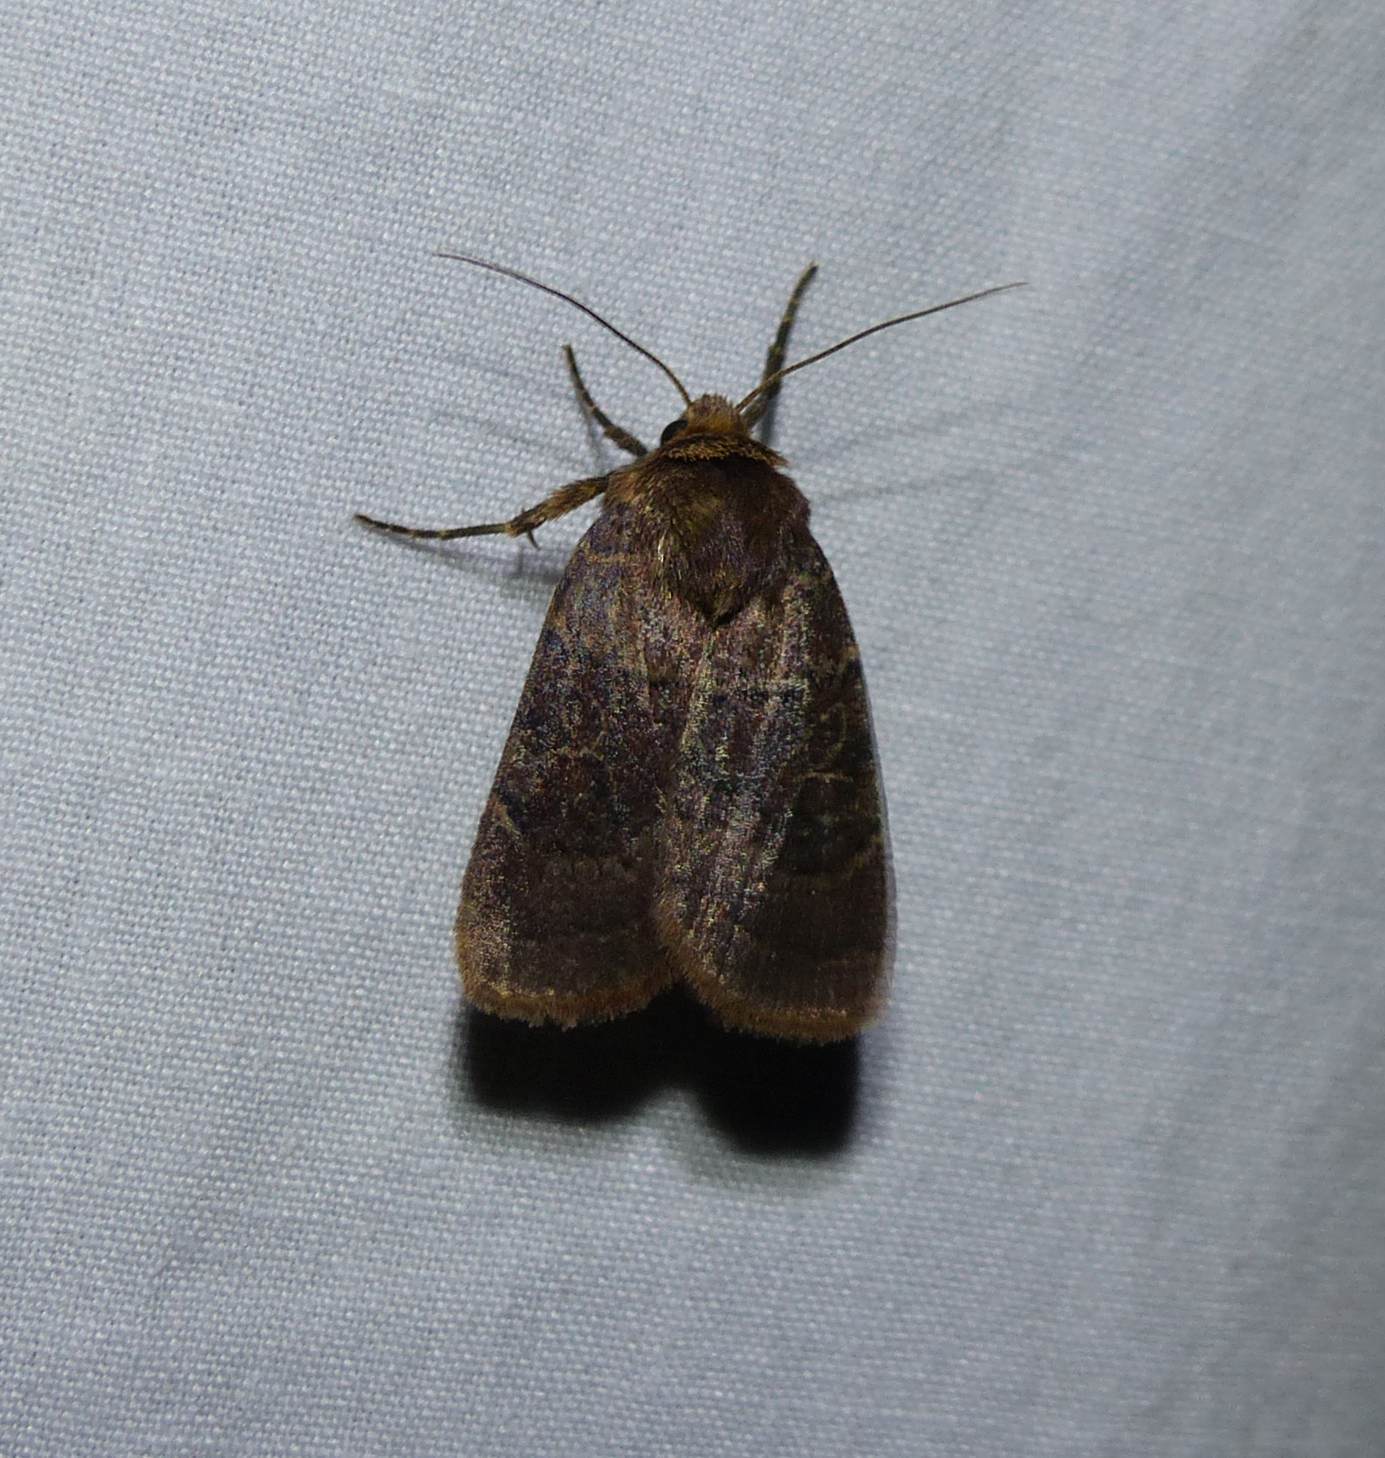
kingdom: Animalia
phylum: Arthropoda
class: Insecta
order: Lepidoptera
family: Noctuidae
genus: Orthodes
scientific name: Orthodes cynica
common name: Cynical quaker
